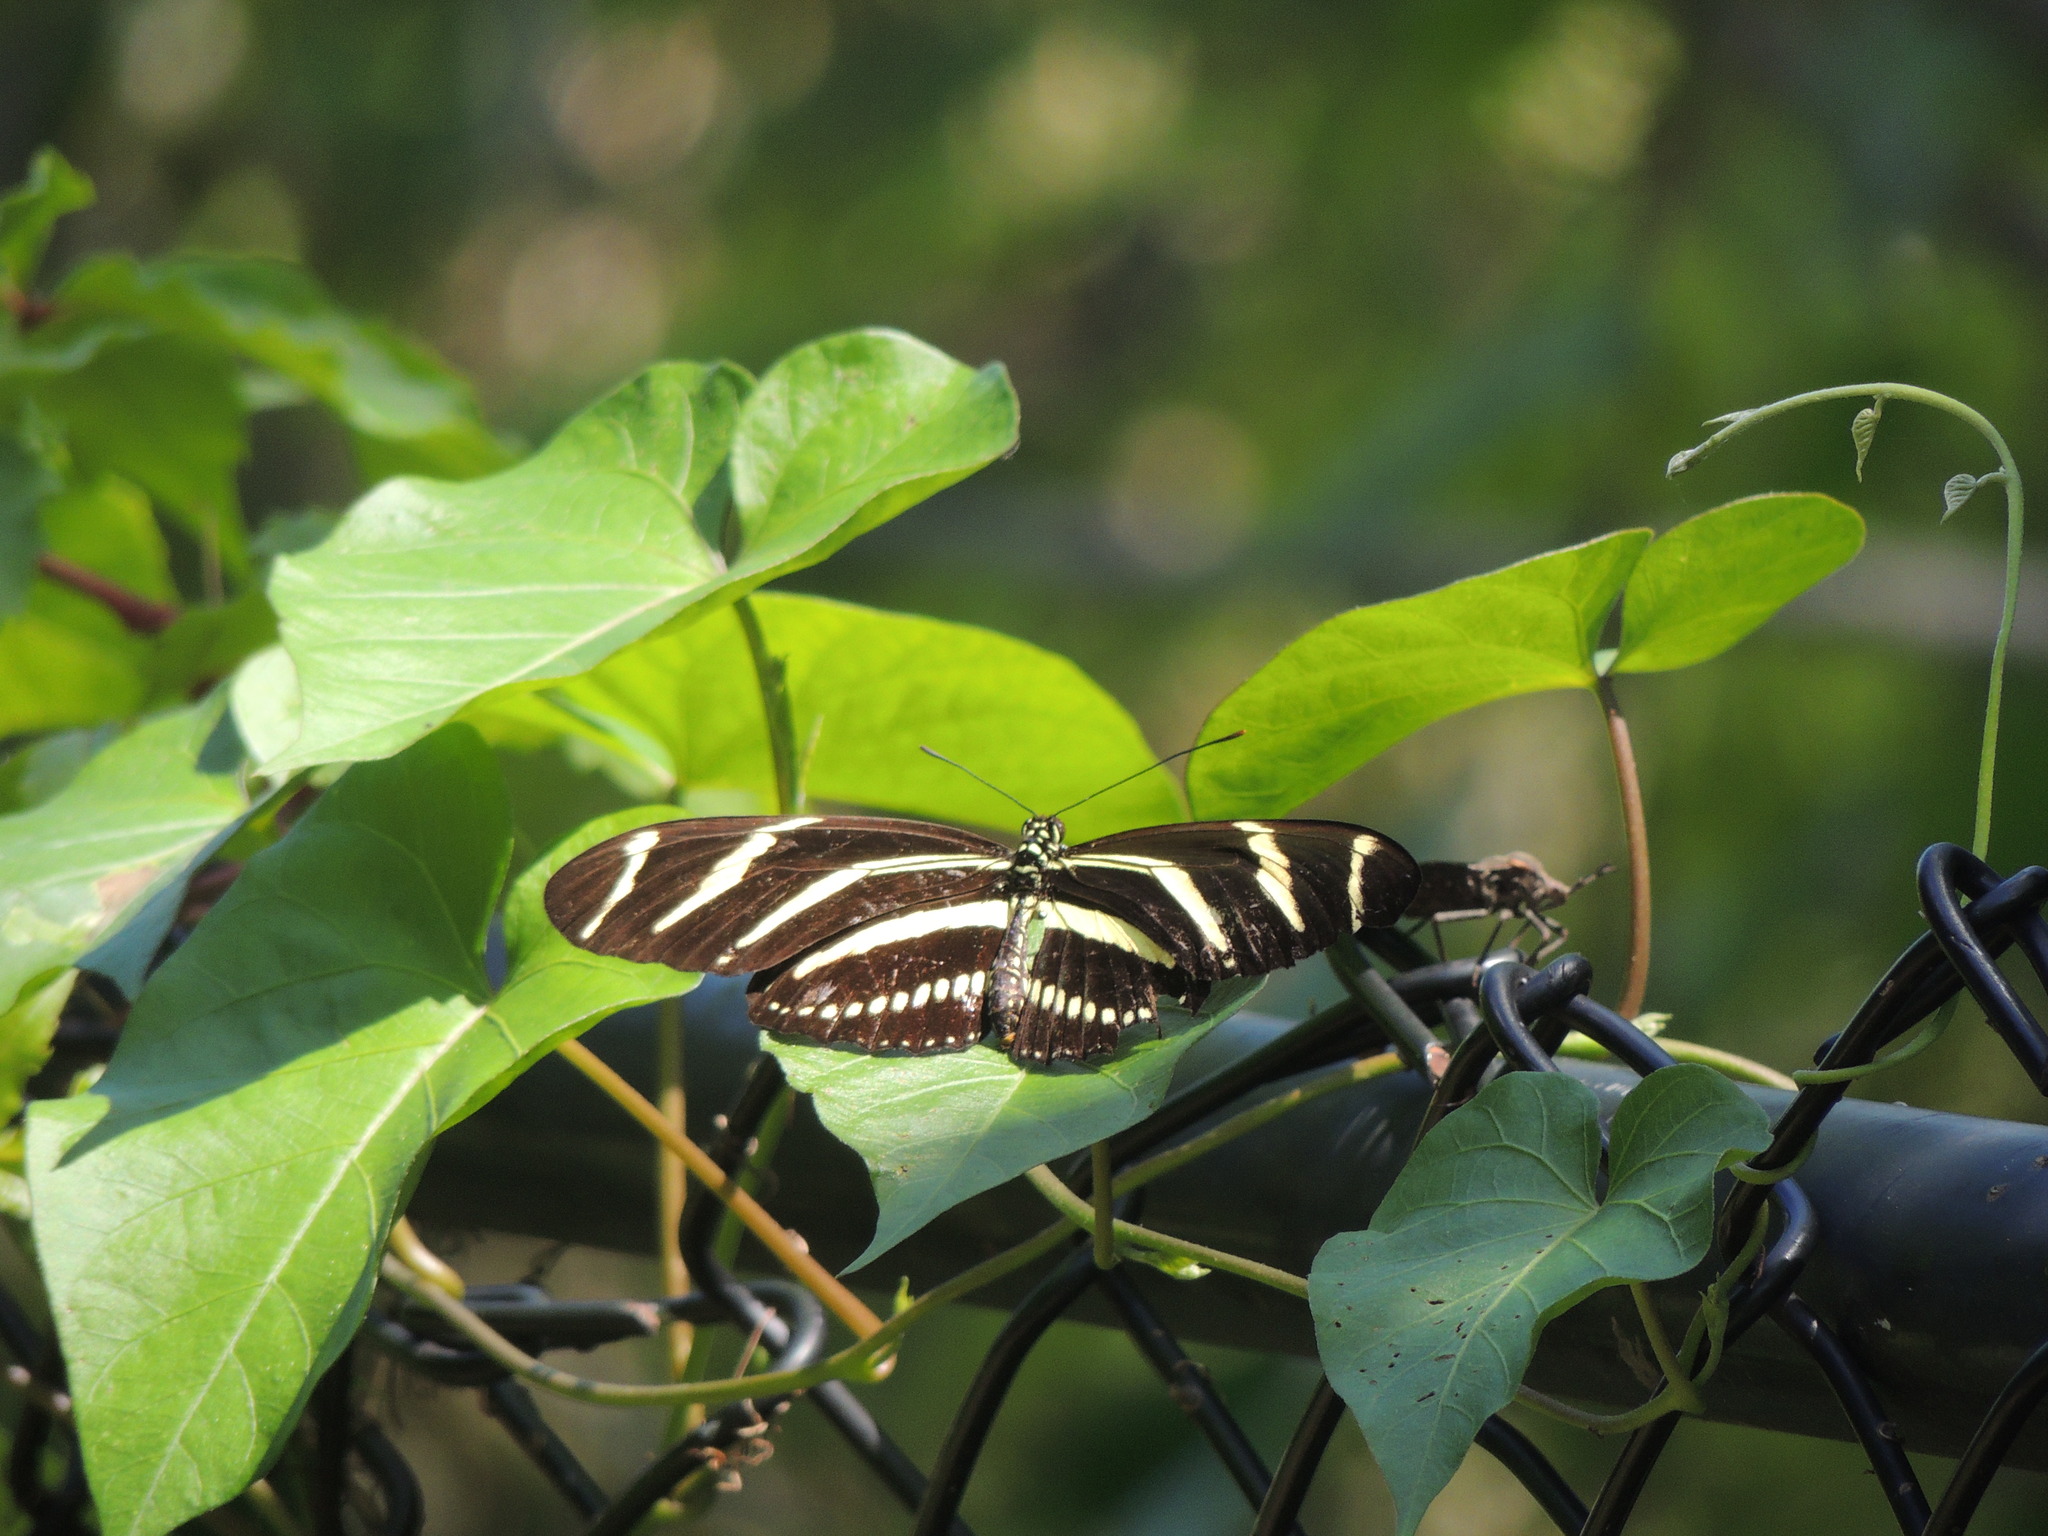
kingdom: Animalia
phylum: Arthropoda
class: Insecta
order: Lepidoptera
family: Nymphalidae
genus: Heliconius
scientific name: Heliconius charithonia
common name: Zebra long wing
